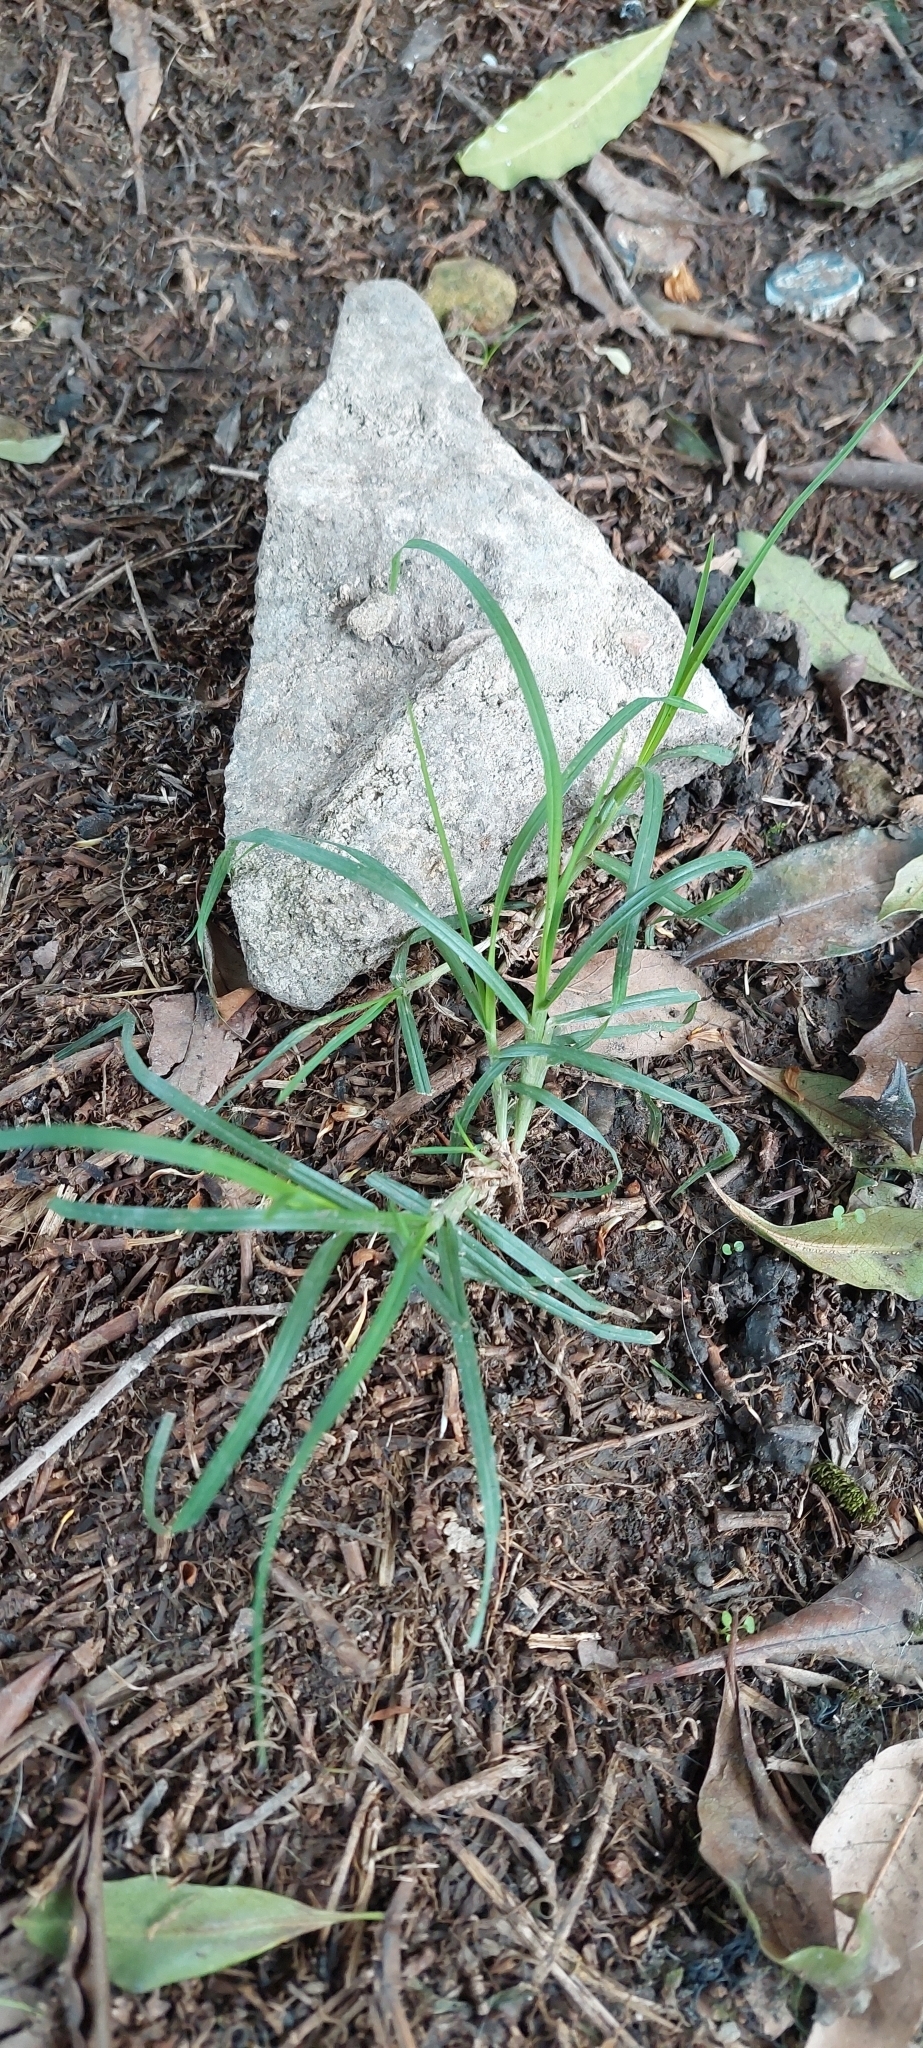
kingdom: Plantae
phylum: Tracheophyta
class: Liliopsida
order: Poales
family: Poaceae
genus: Cenchrus
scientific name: Cenchrus clandestinus
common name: Kikuyugrass
